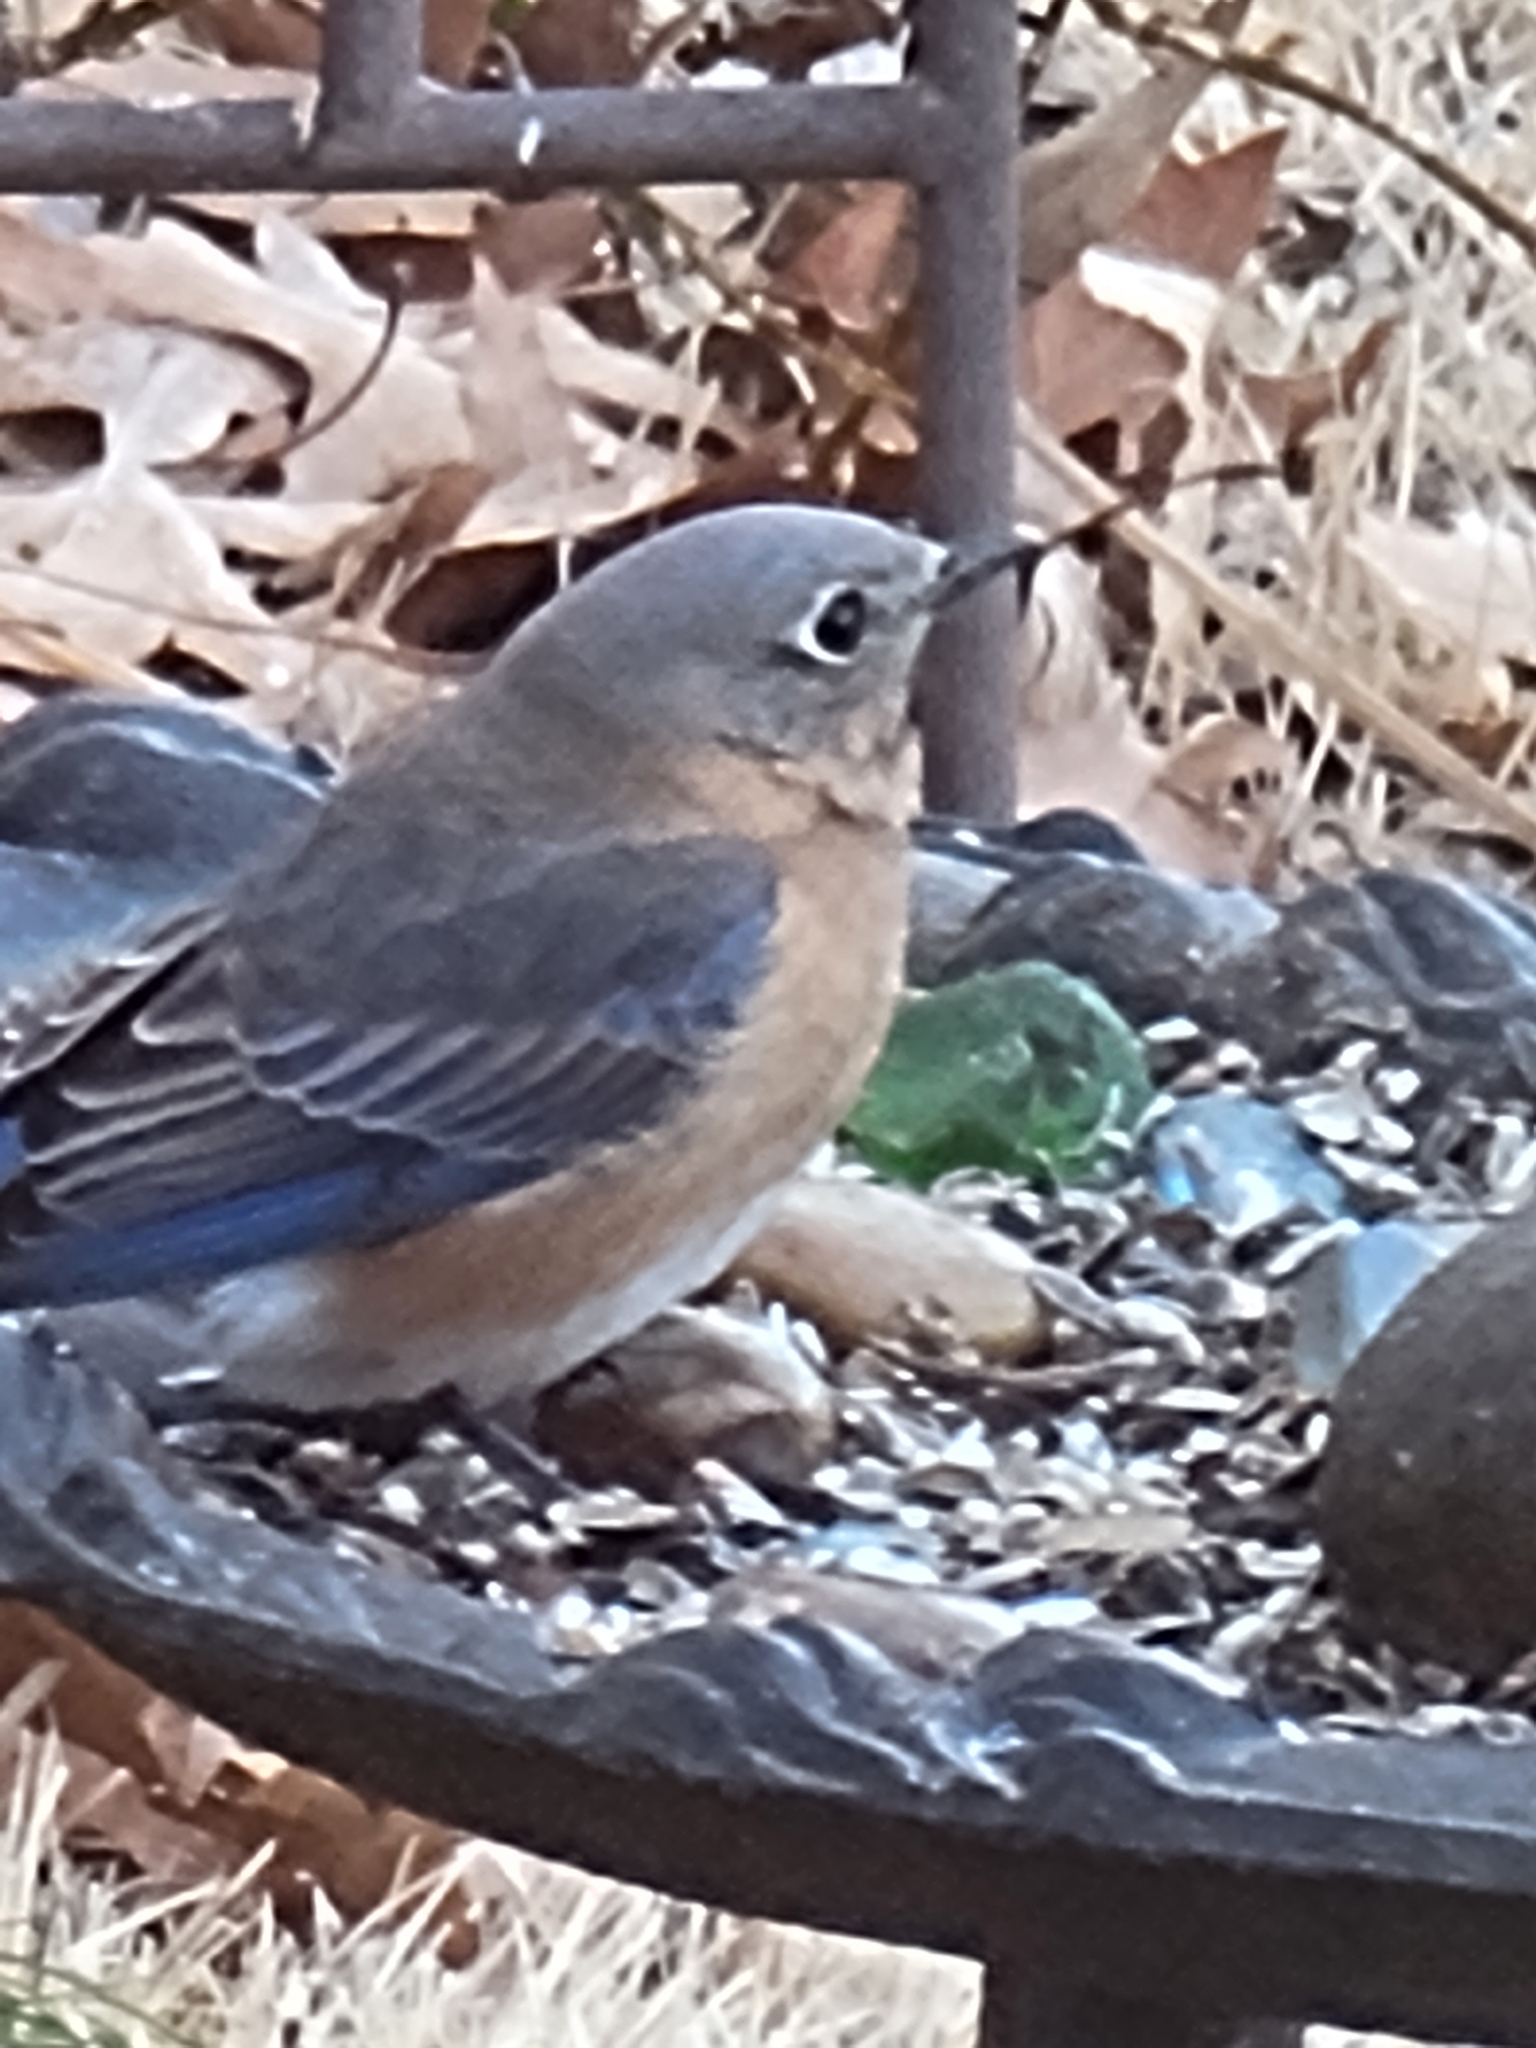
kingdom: Animalia
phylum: Chordata
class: Aves
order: Passeriformes
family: Turdidae
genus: Sialia
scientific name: Sialia sialis
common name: Eastern bluebird
